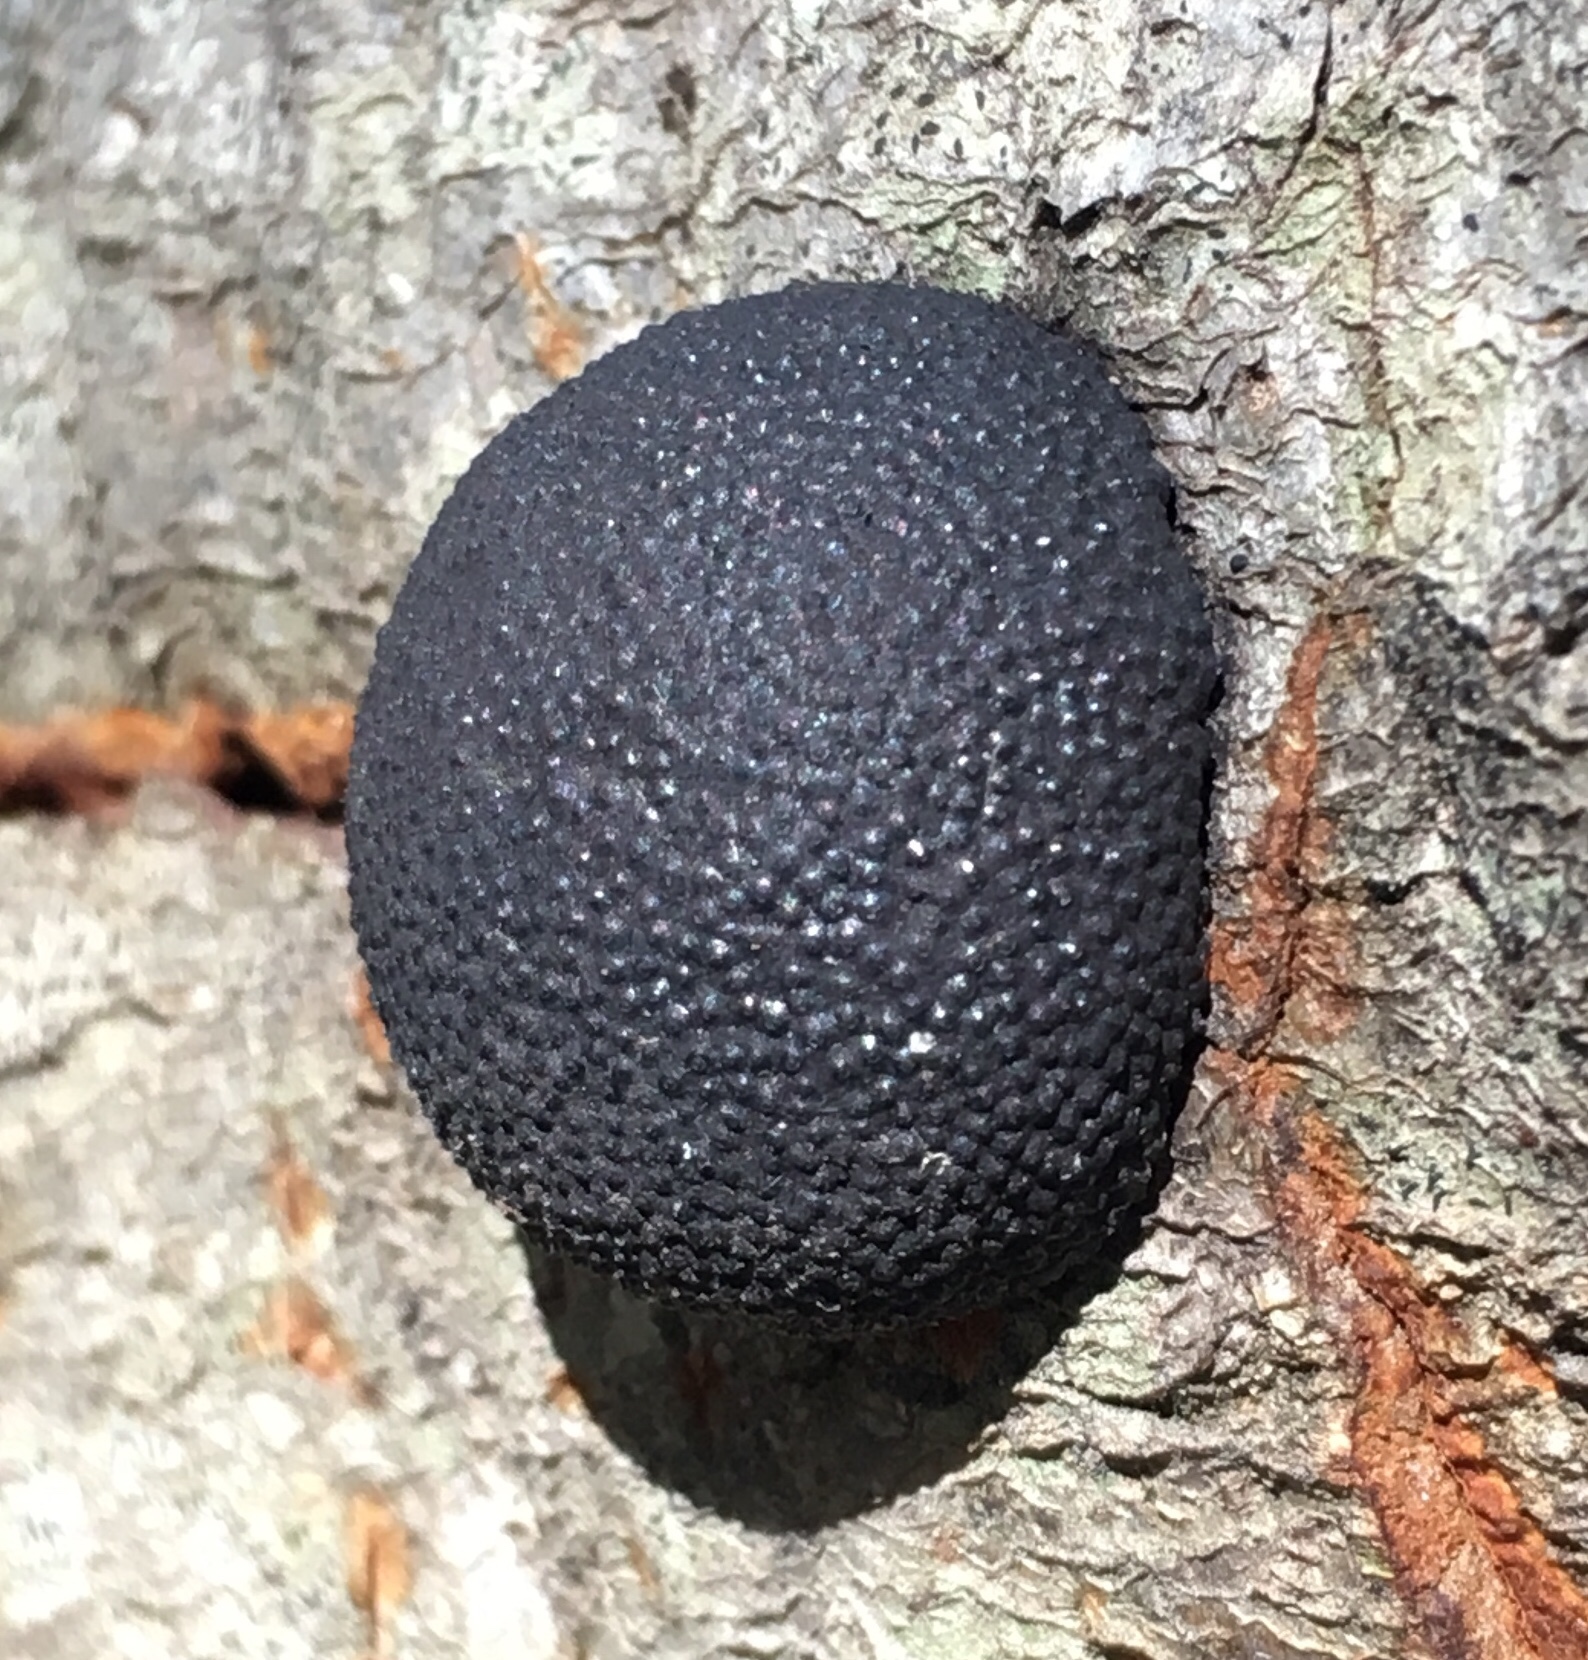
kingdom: Fungi
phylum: Ascomycota
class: Sordariomycetes
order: Xylariales
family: Hypoxylaceae
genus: Annulohypoxylon
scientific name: Annulohypoxylon thouarsianum
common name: Cramp balls
